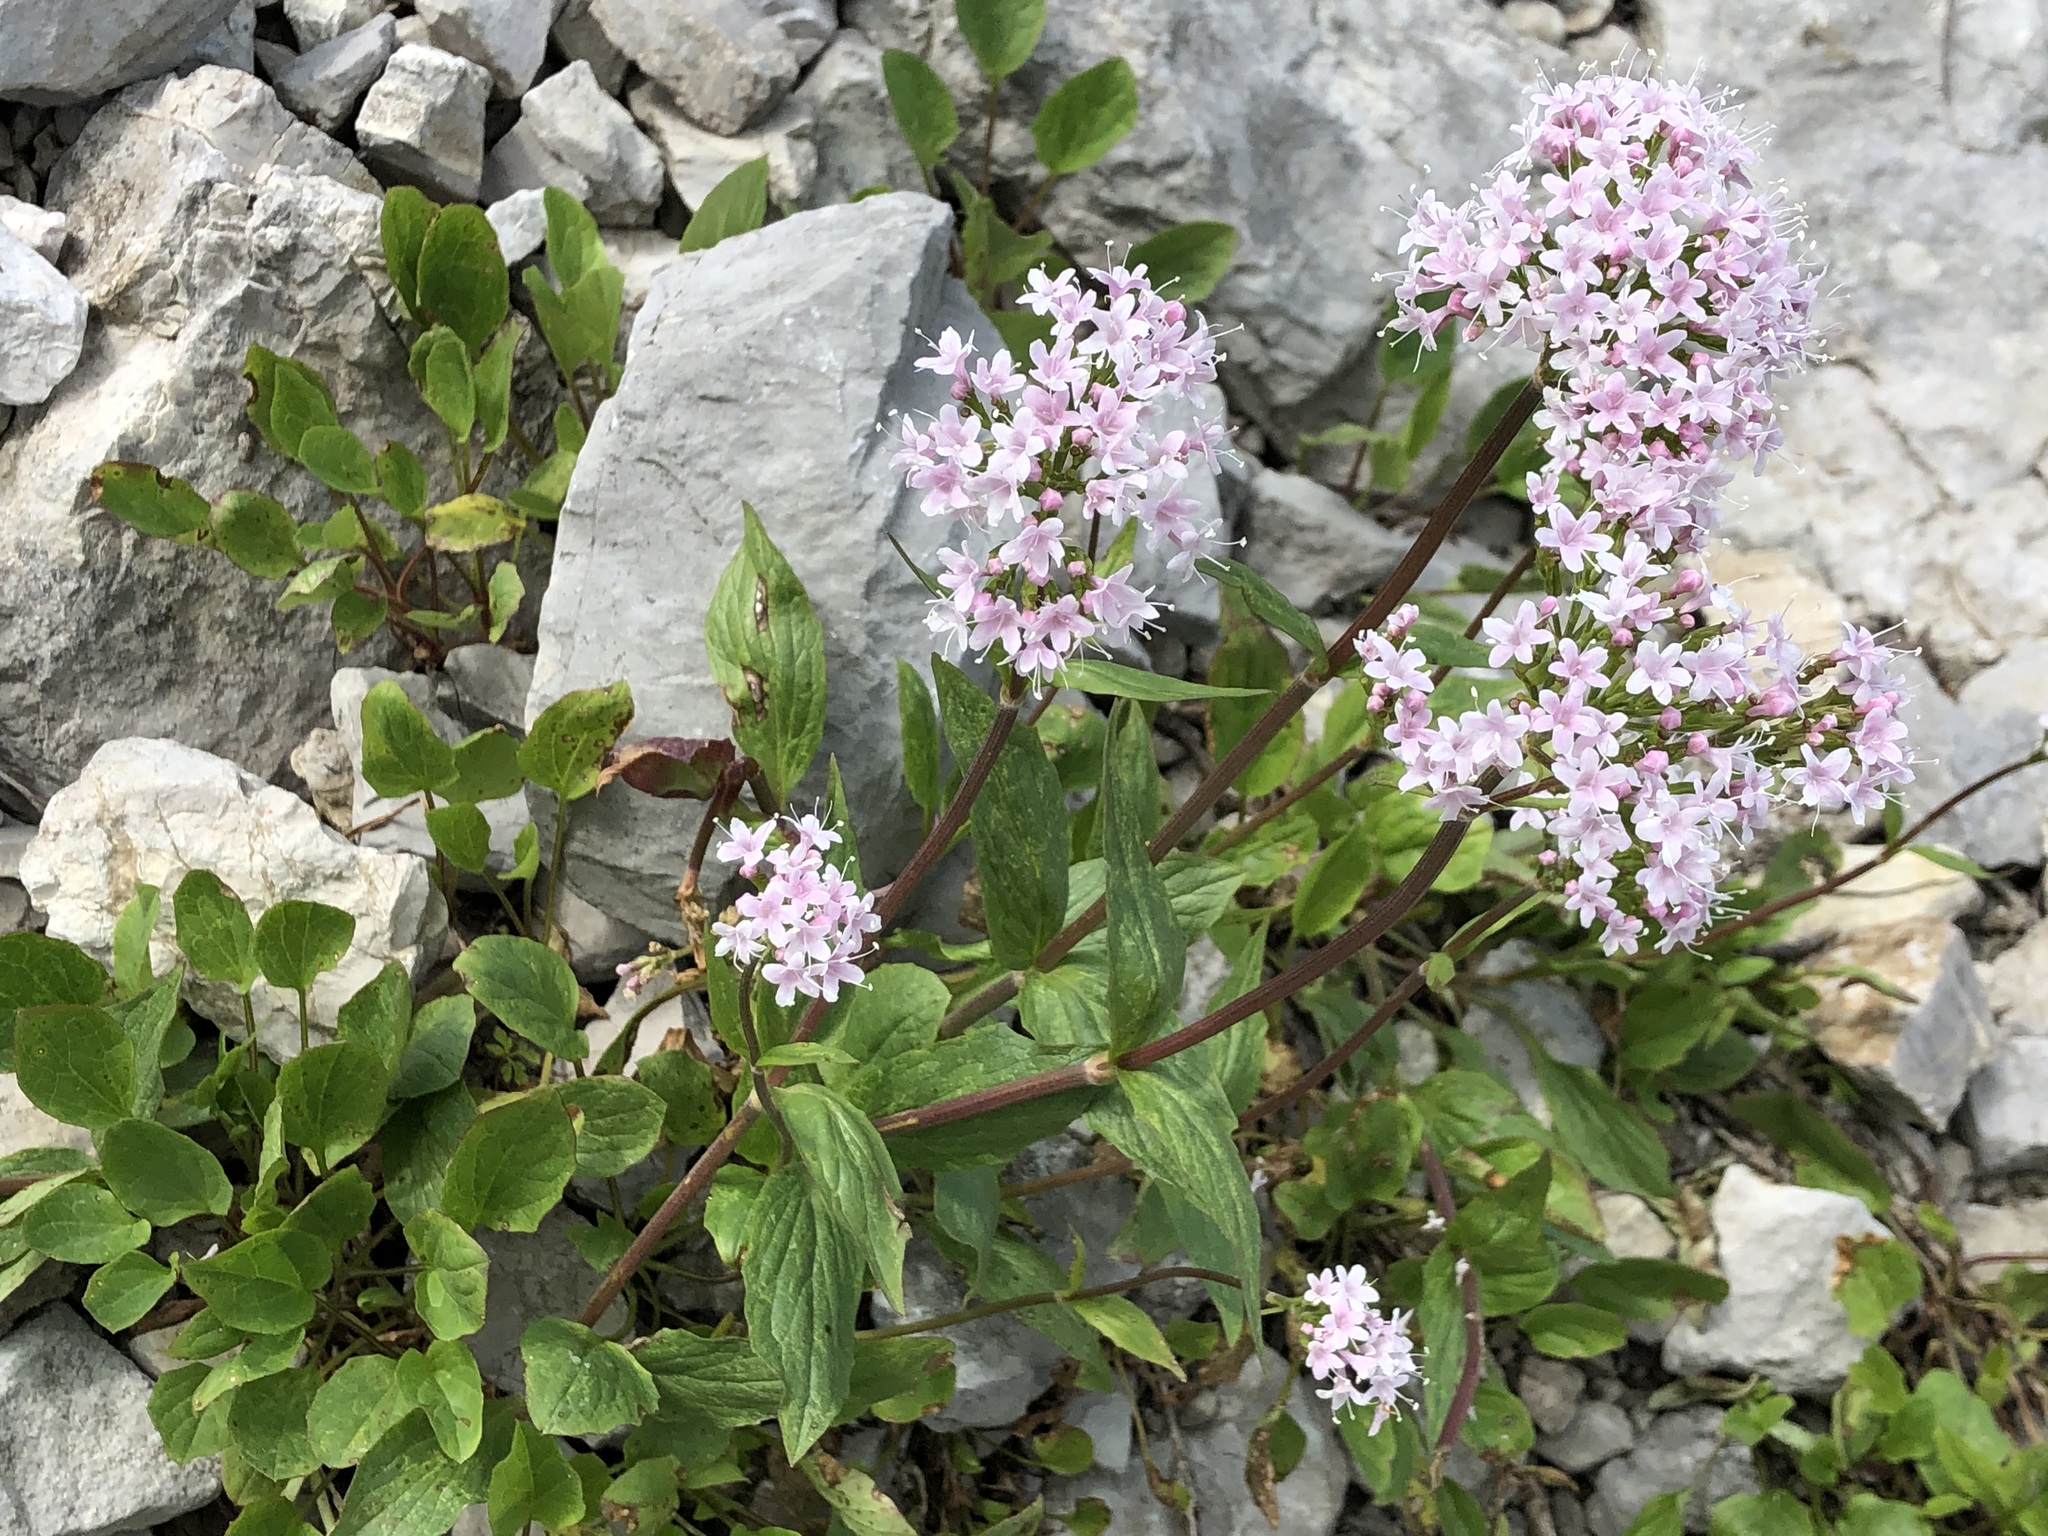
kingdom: Plantae
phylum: Tracheophyta
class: Magnoliopsida
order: Dipsacales
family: Caprifoliaceae
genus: Valeriana
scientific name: Valeriana montana
